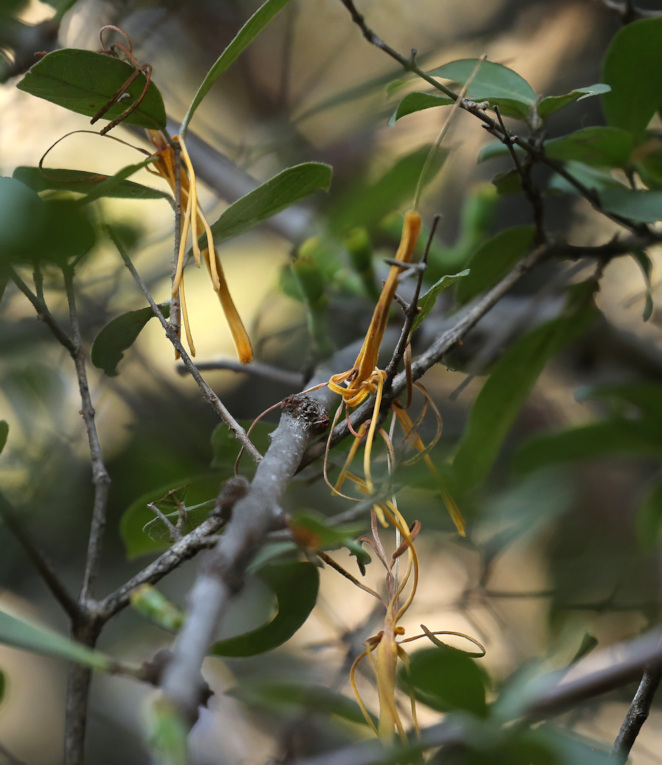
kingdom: Plantae
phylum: Tracheophyta
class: Magnoliopsida
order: Santalales
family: Loranthaceae
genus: Pedistylis
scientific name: Pedistylis galpinii
